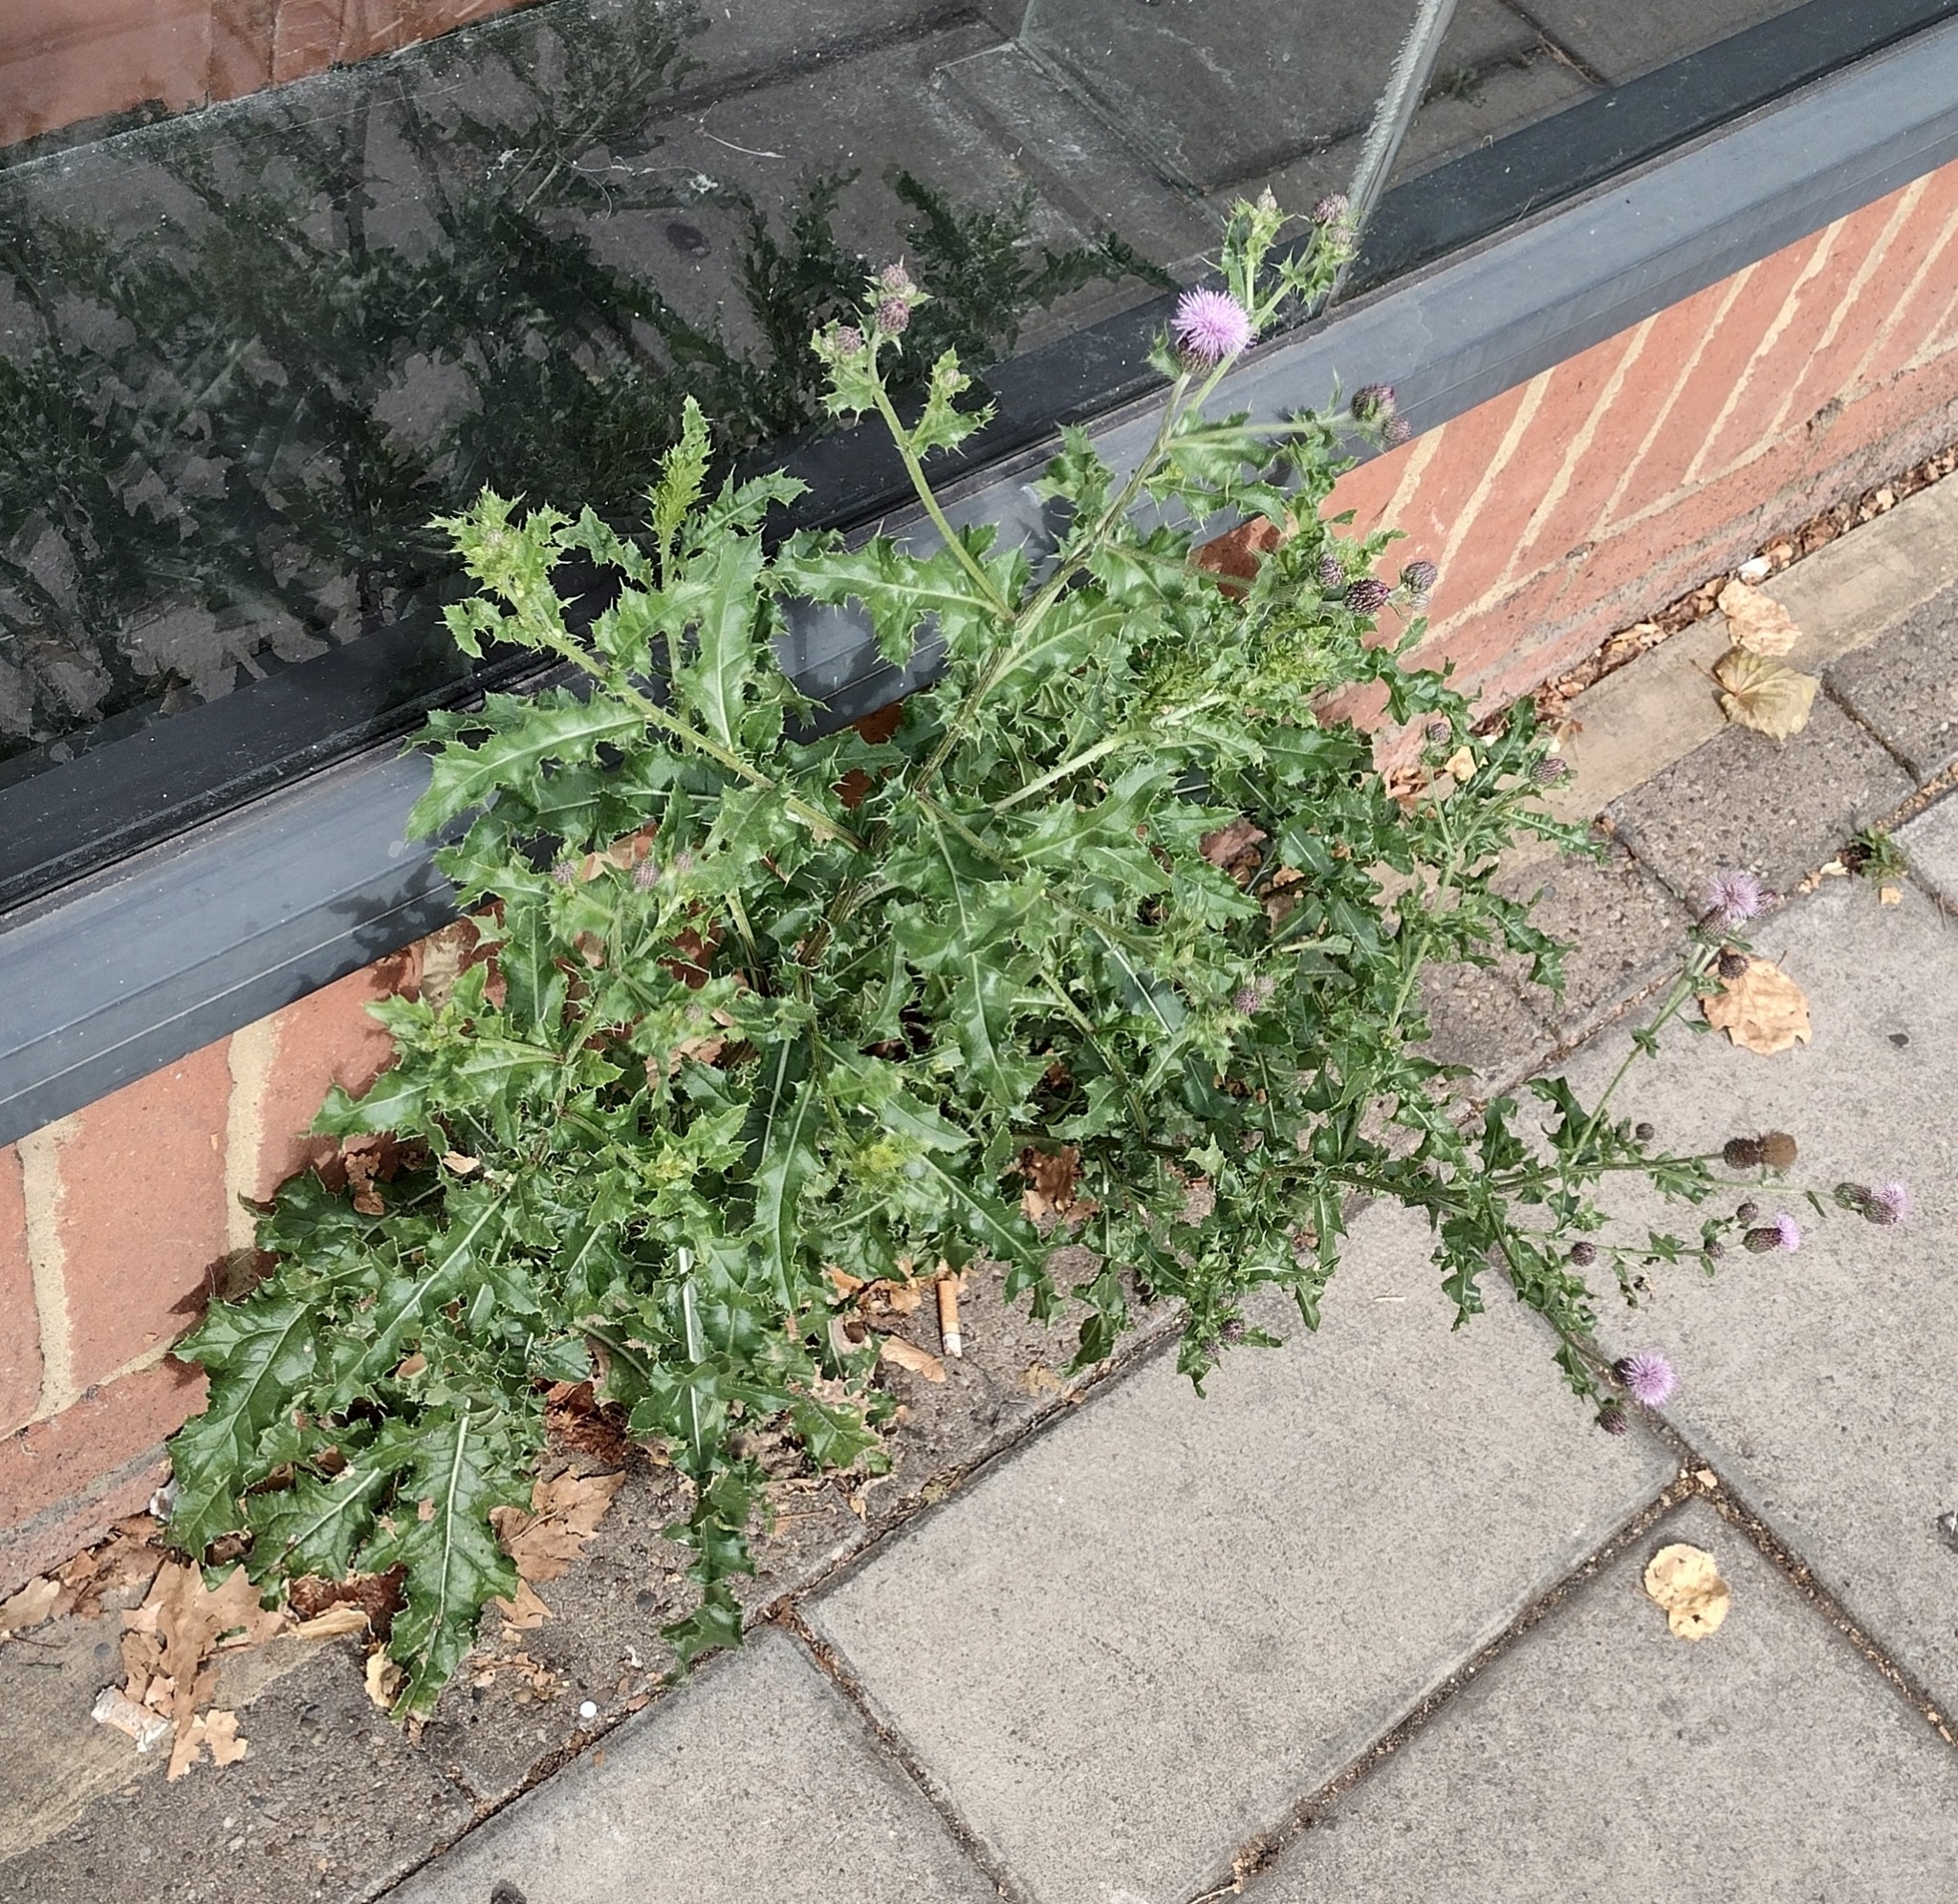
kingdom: Plantae
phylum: Tracheophyta
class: Magnoliopsida
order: Asterales
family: Asteraceae
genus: Cirsium
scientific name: Cirsium arvense
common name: Creeping thistle
